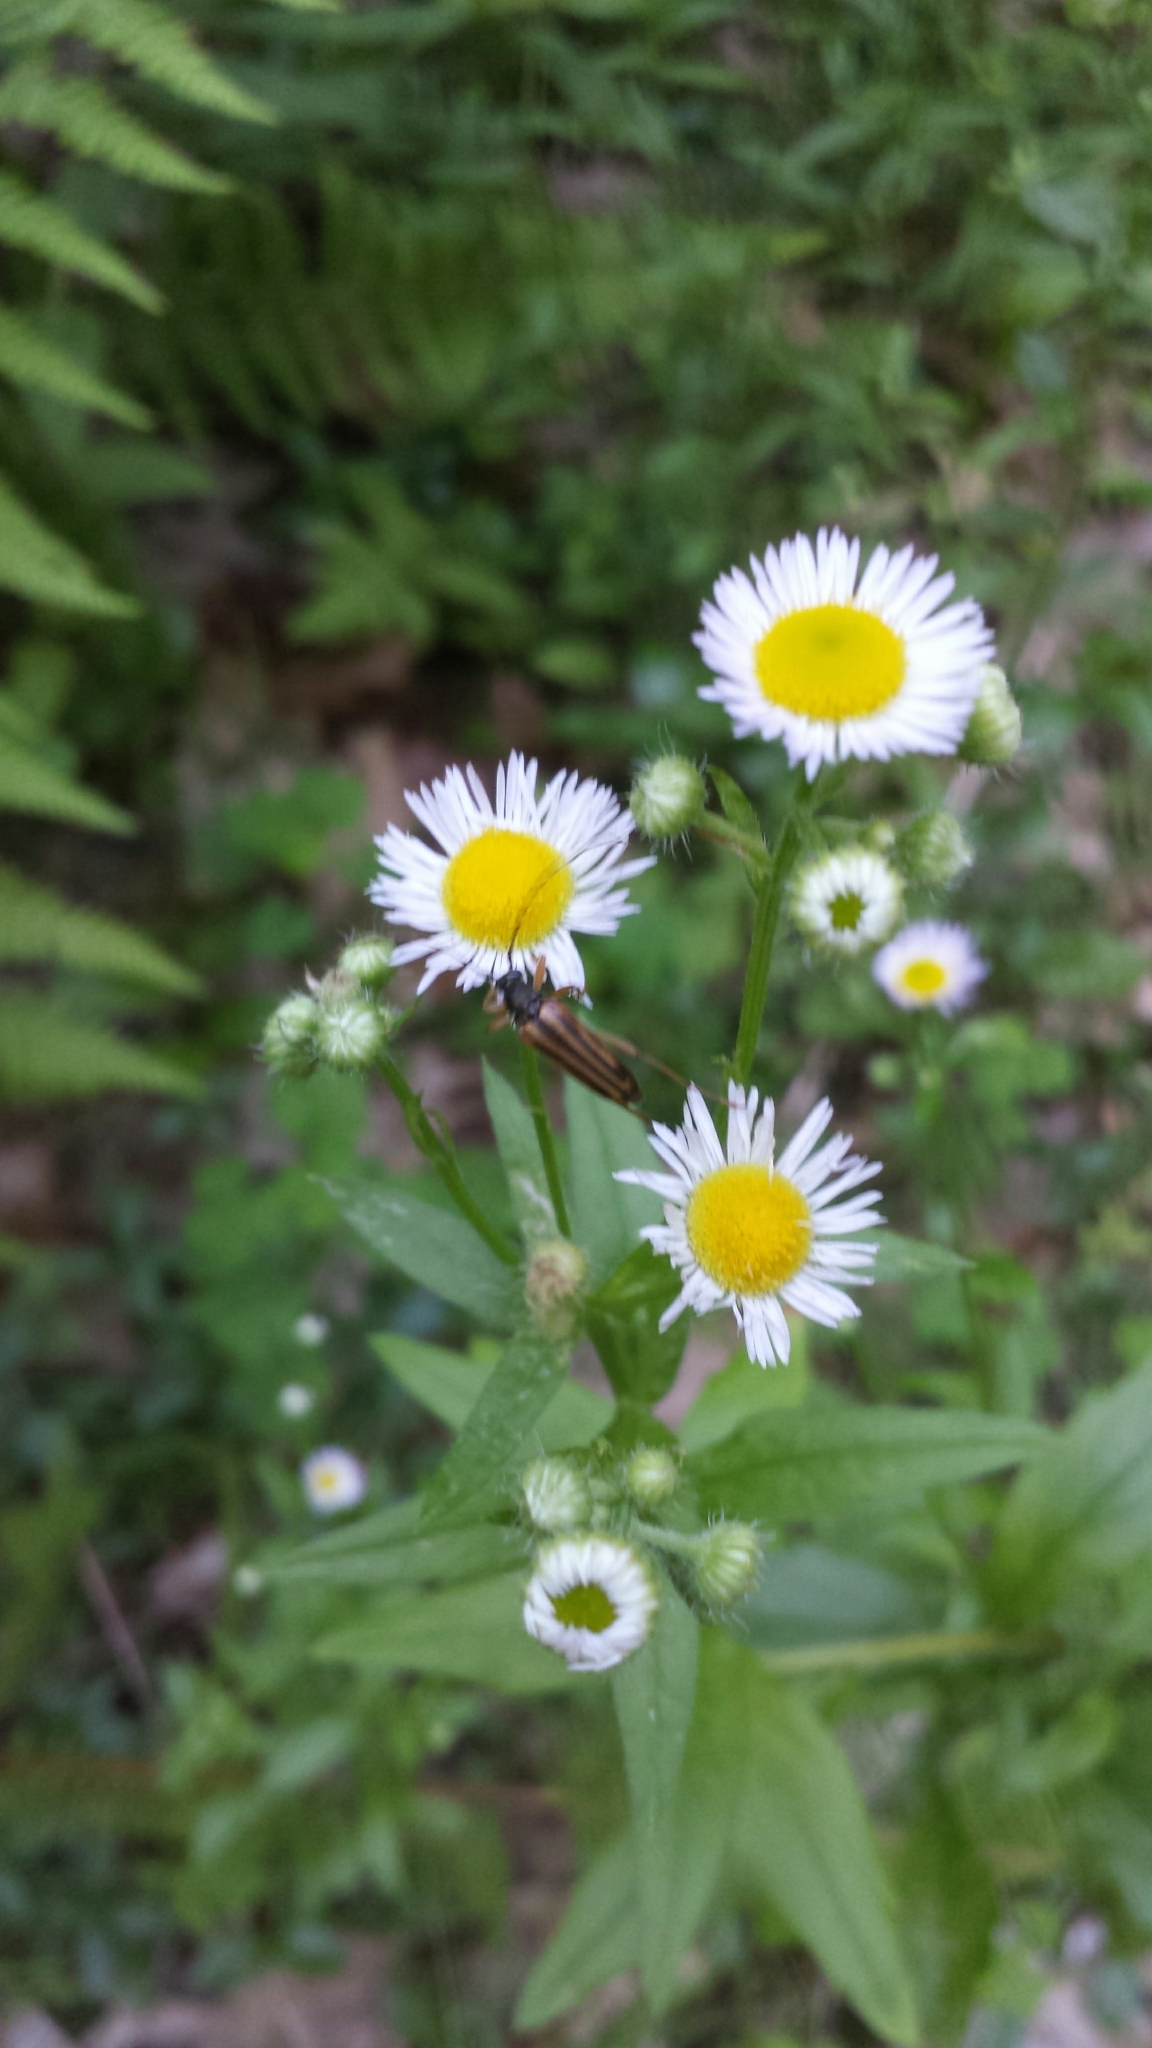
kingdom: Animalia
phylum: Arthropoda
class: Insecta
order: Coleoptera
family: Cerambycidae
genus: Analeptura
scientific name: Analeptura lineola
